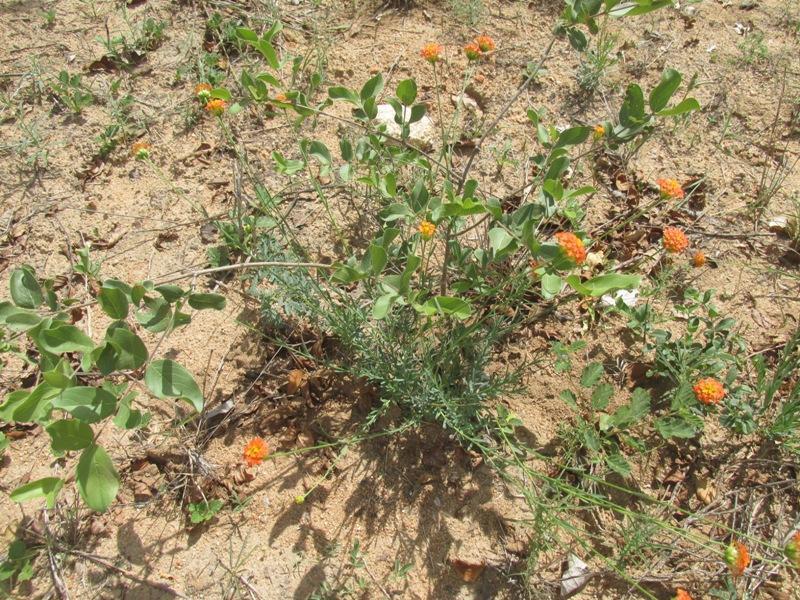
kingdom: Plantae
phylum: Tracheophyta
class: Magnoliopsida
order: Malvales
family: Thymelaeaceae
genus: Gnidia
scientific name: Gnidia rubescens
